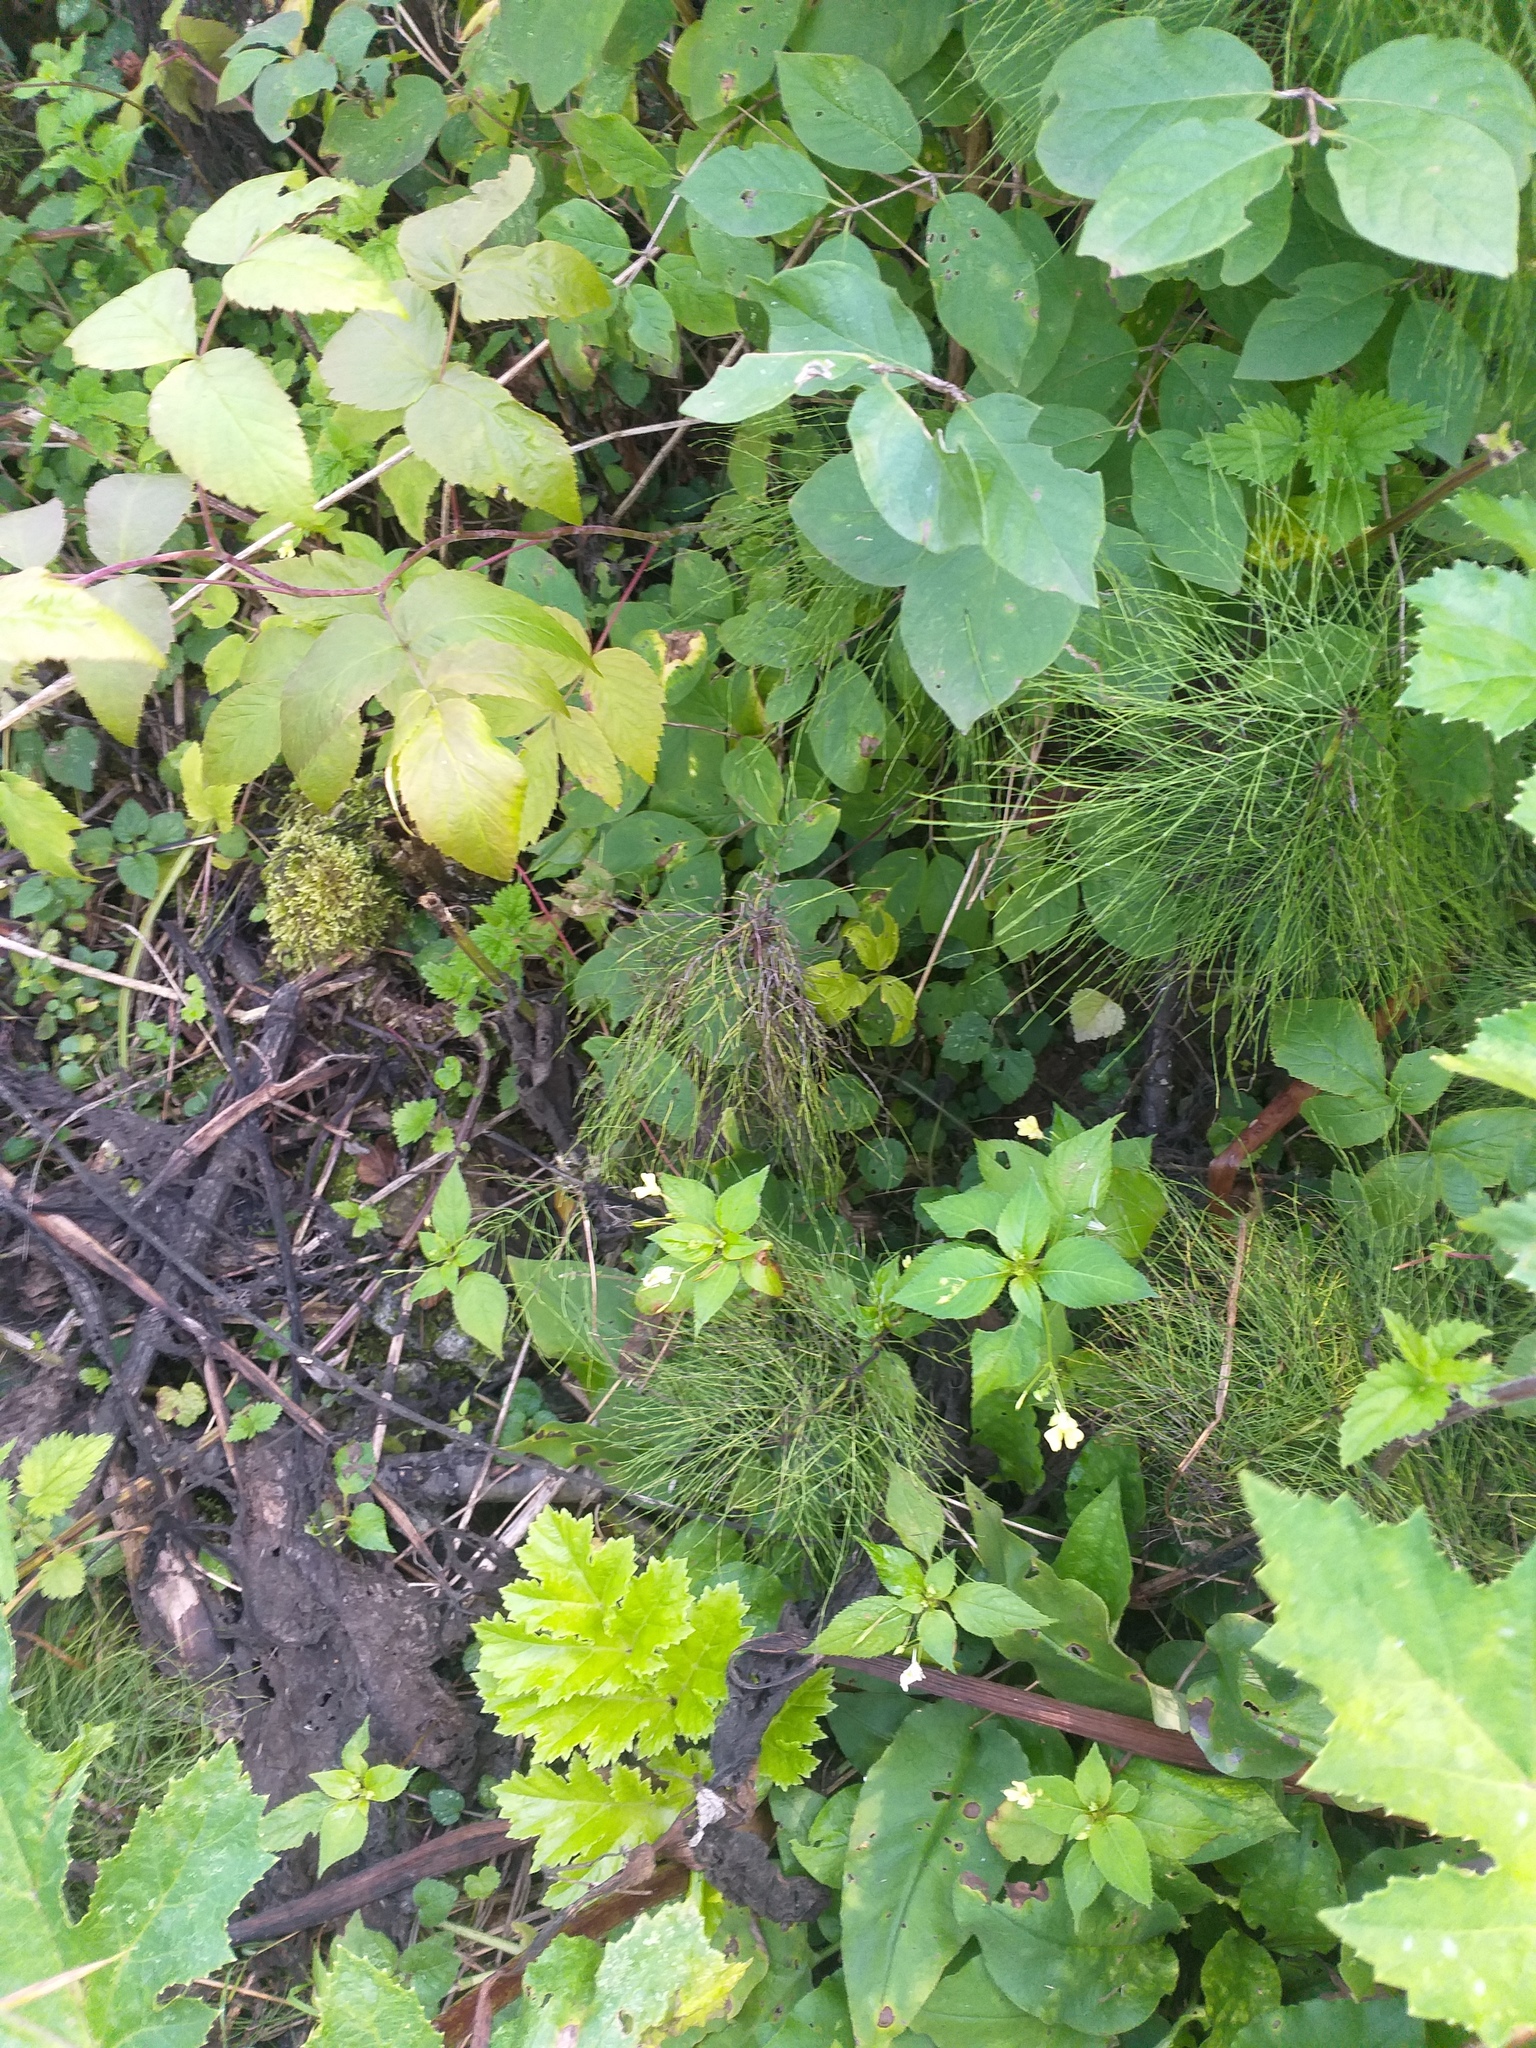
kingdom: Plantae
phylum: Tracheophyta
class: Polypodiopsida
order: Equisetales
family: Equisetaceae
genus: Equisetum
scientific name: Equisetum sylvaticum
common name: Wood horsetail
